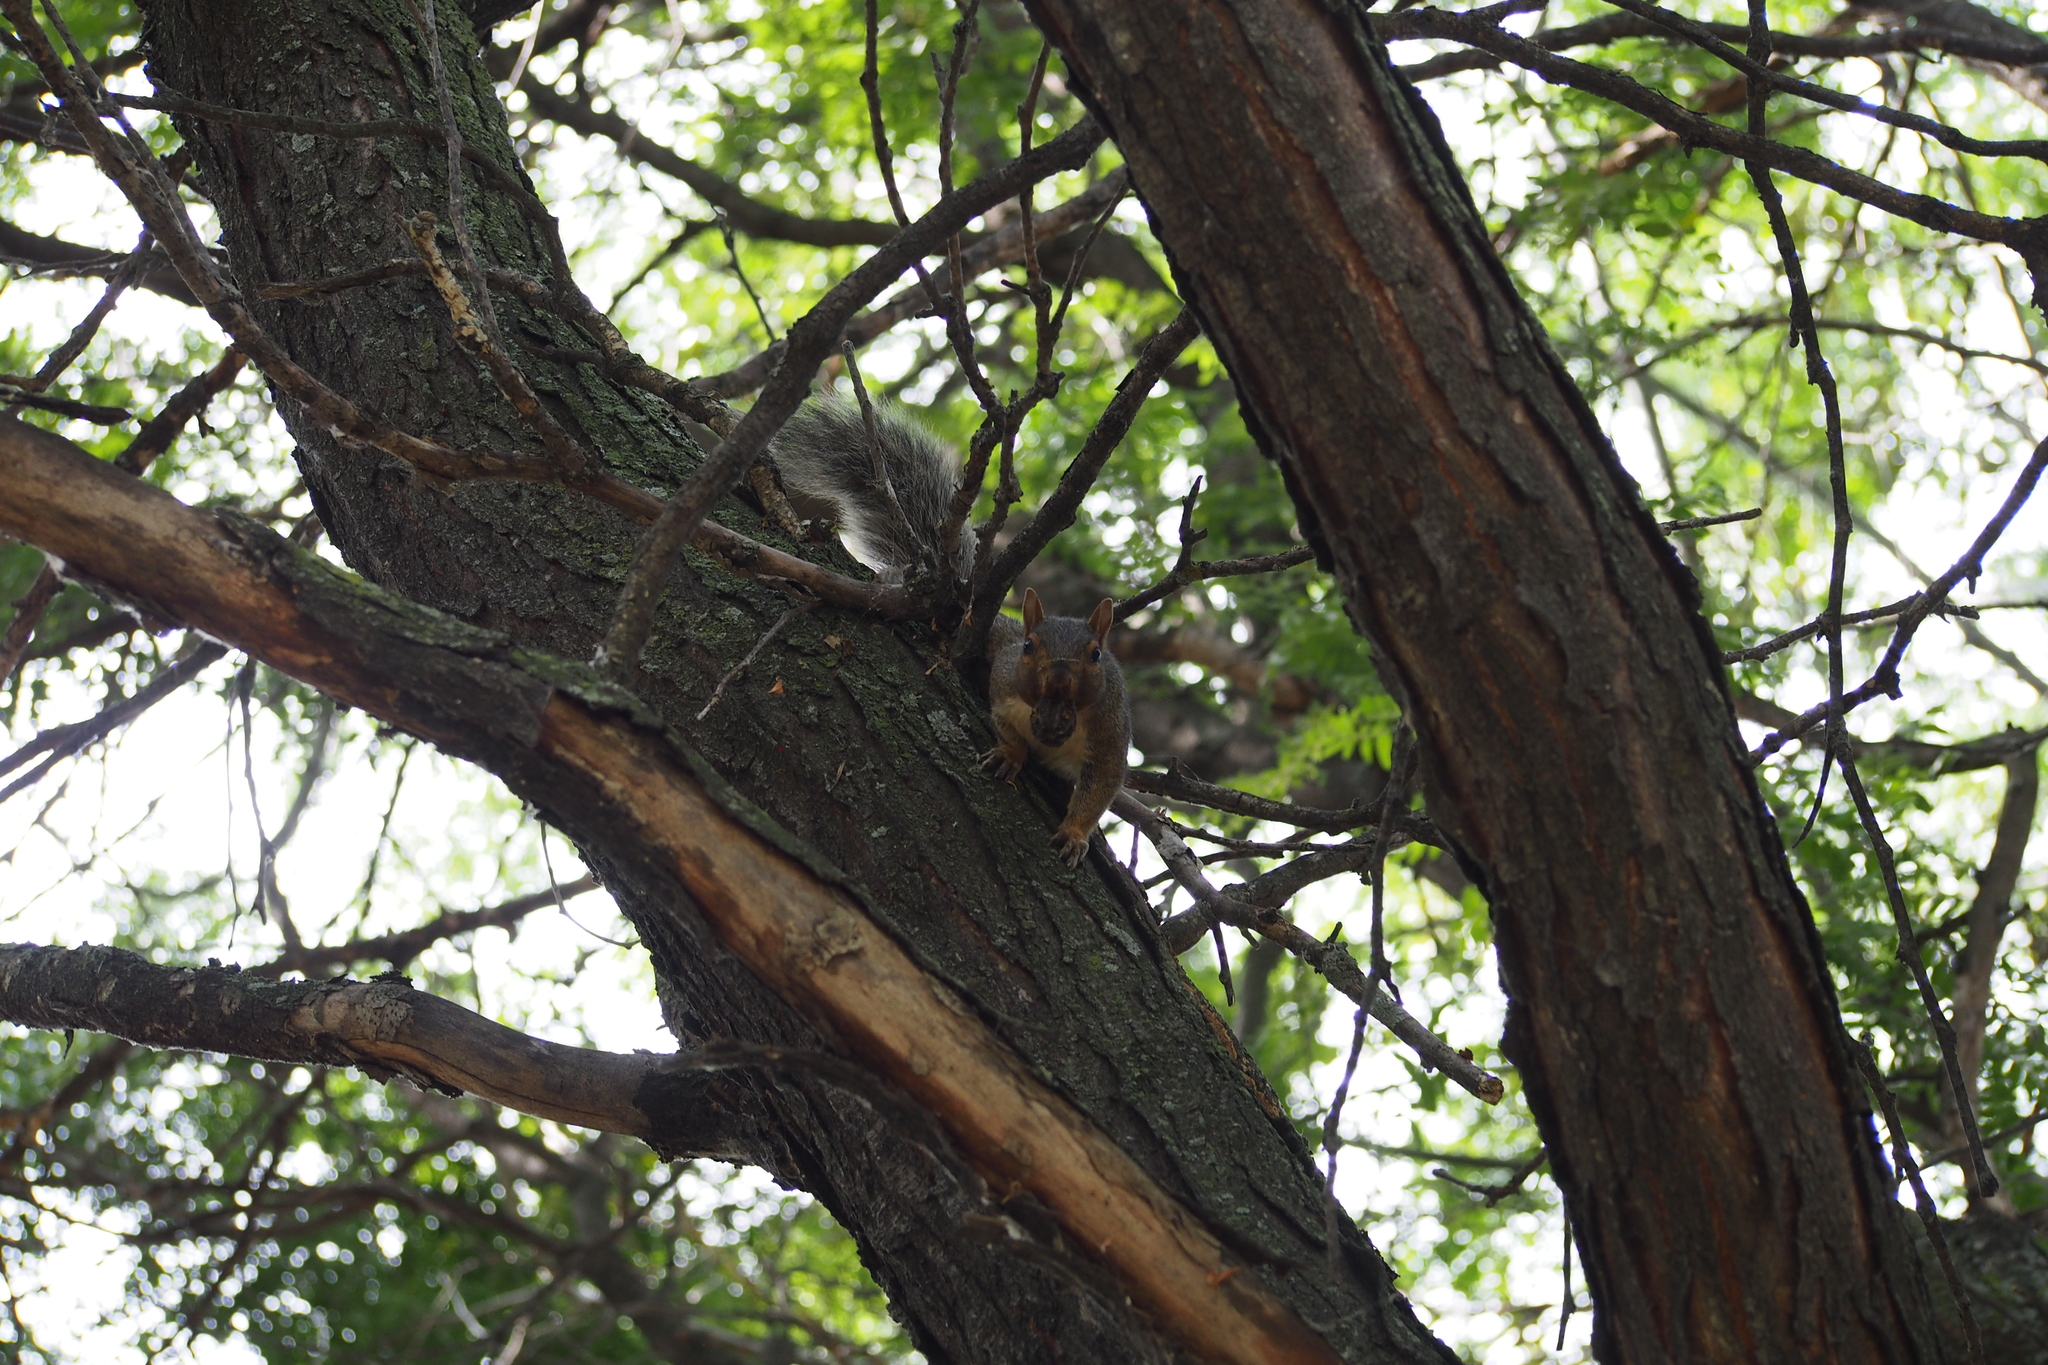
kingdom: Animalia
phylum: Chordata
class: Mammalia
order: Rodentia
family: Sciuridae
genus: Sciurus
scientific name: Sciurus carolinensis
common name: Eastern gray squirrel
